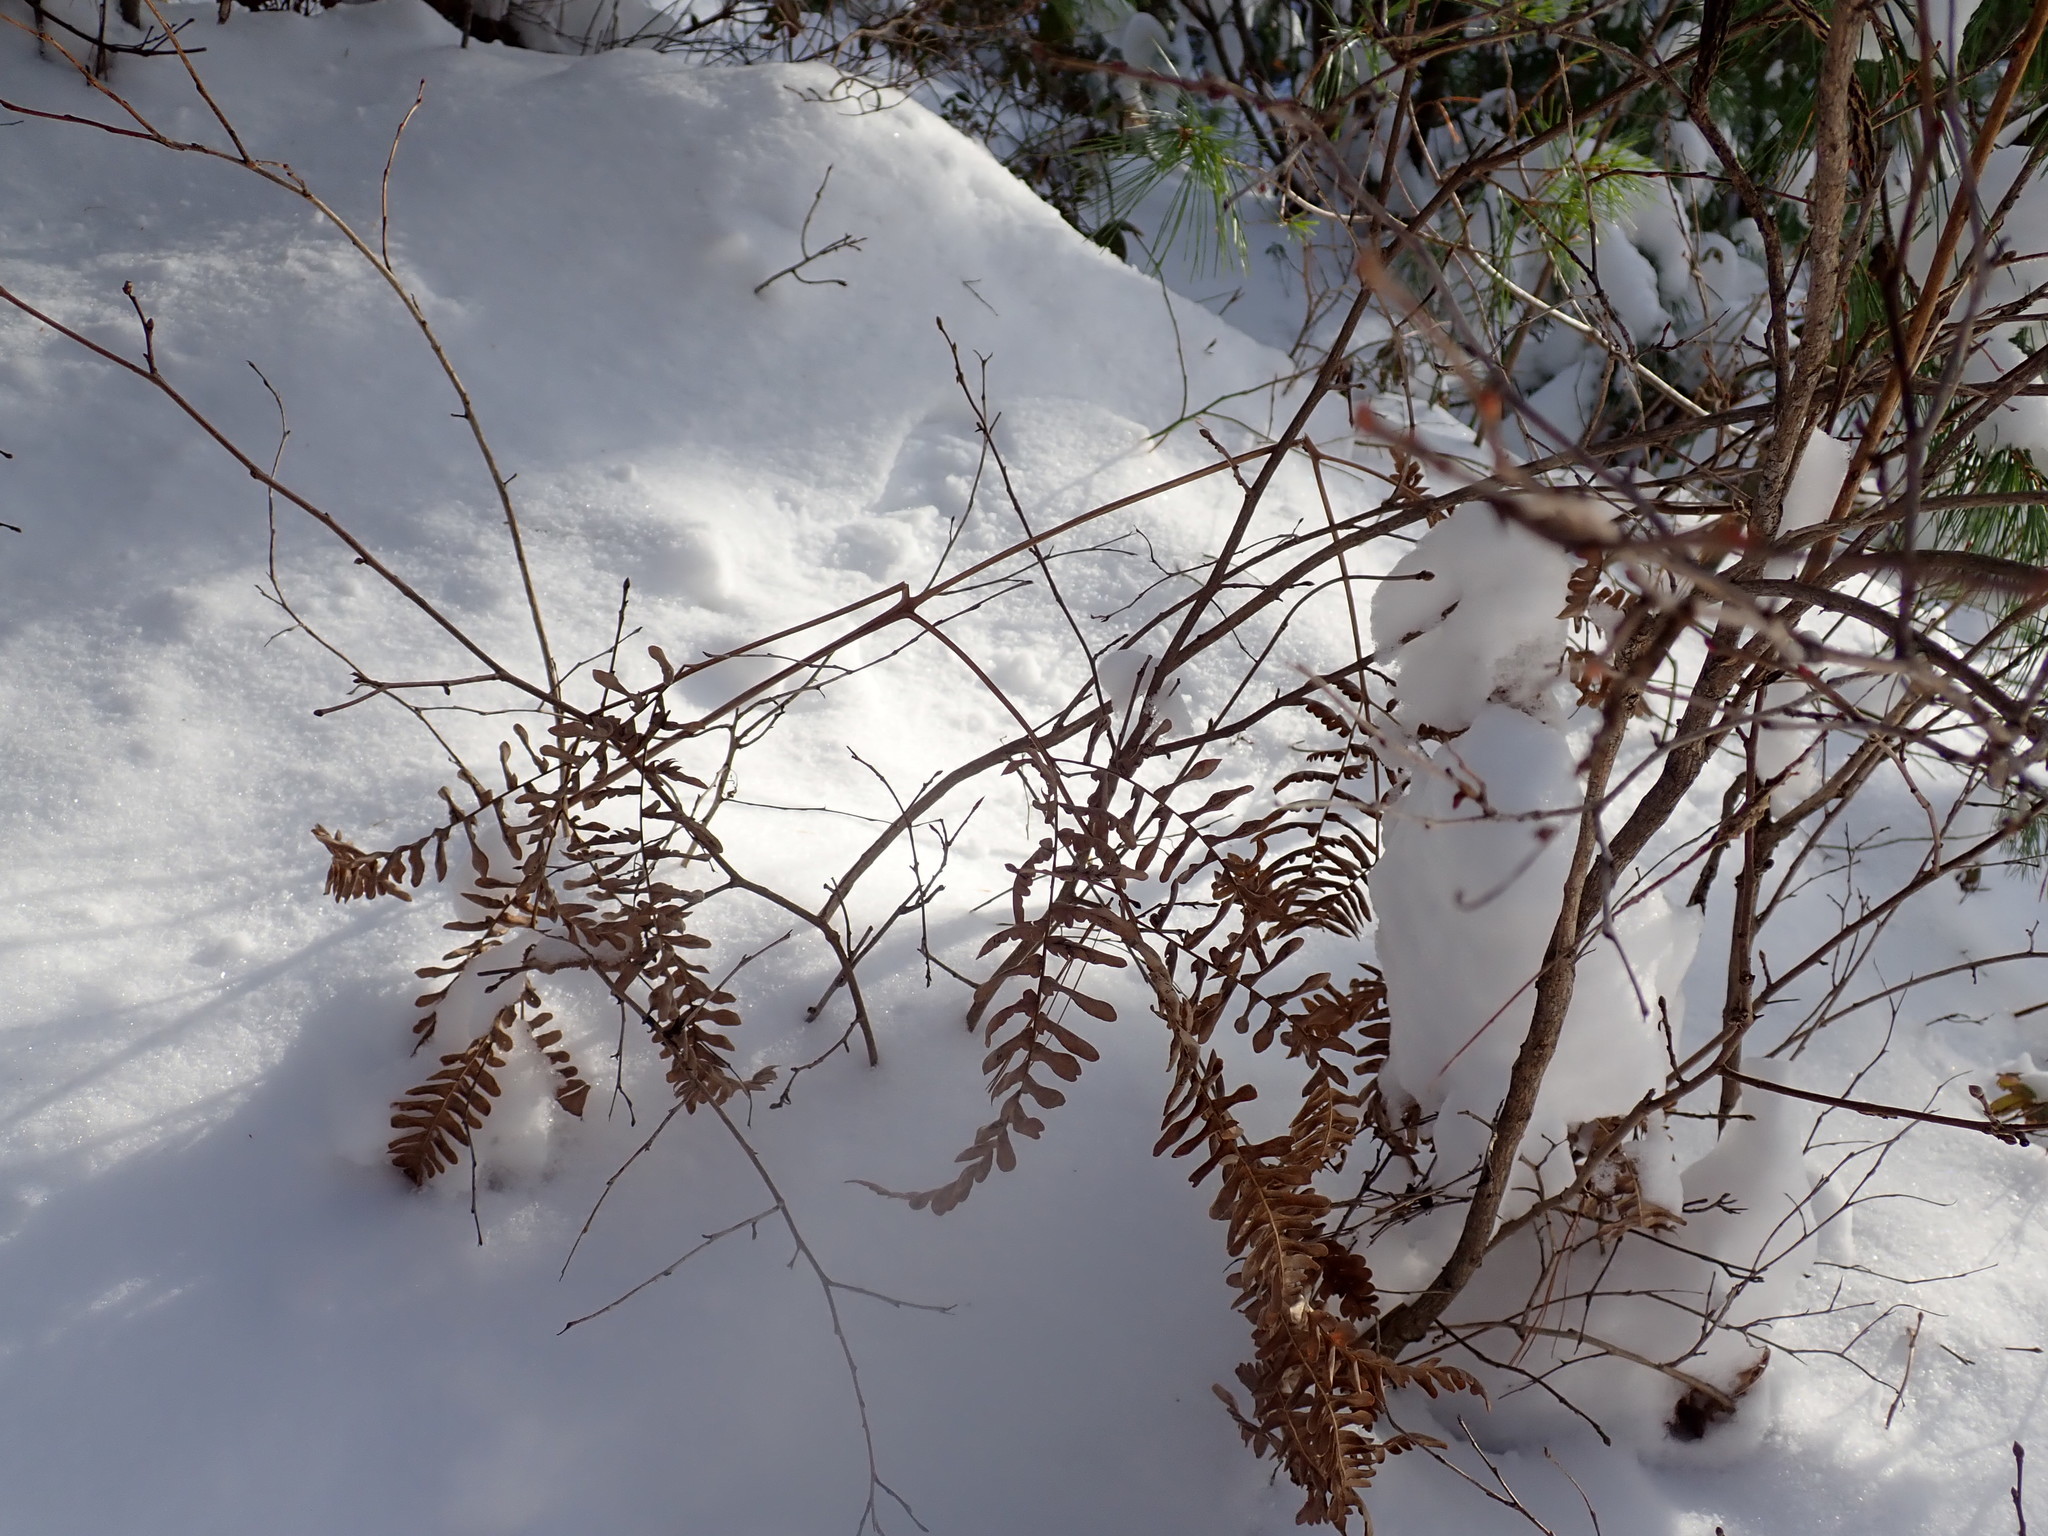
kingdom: Plantae
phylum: Tracheophyta
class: Polypodiopsida
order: Polypodiales
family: Dennstaedtiaceae
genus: Pteridium
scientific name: Pteridium aquilinum
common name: Bracken
